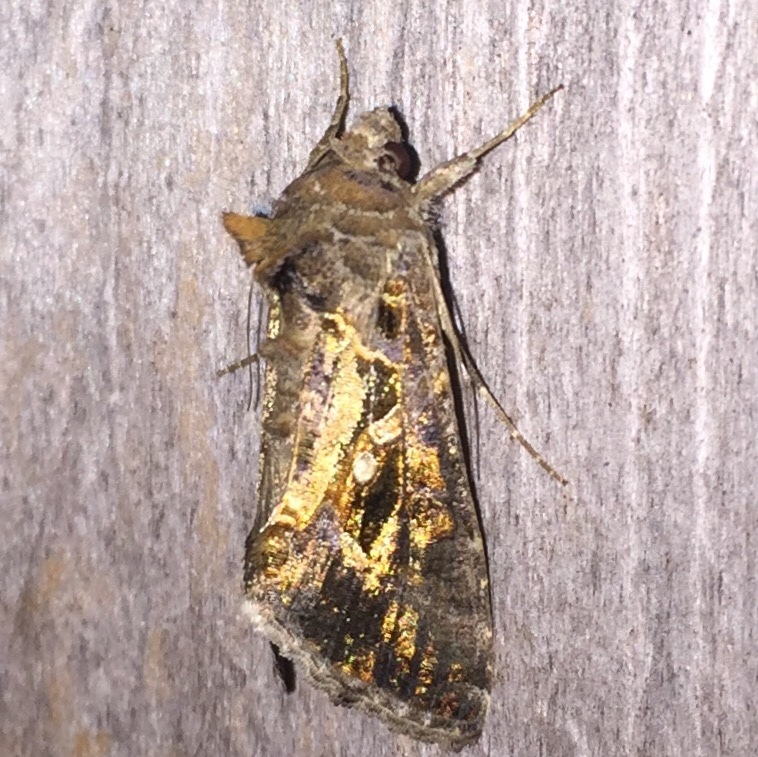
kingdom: Animalia
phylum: Arthropoda
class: Insecta
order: Lepidoptera
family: Noctuidae
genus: Chrysodeixis
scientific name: Chrysodeixis includens
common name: Cutworm moth
